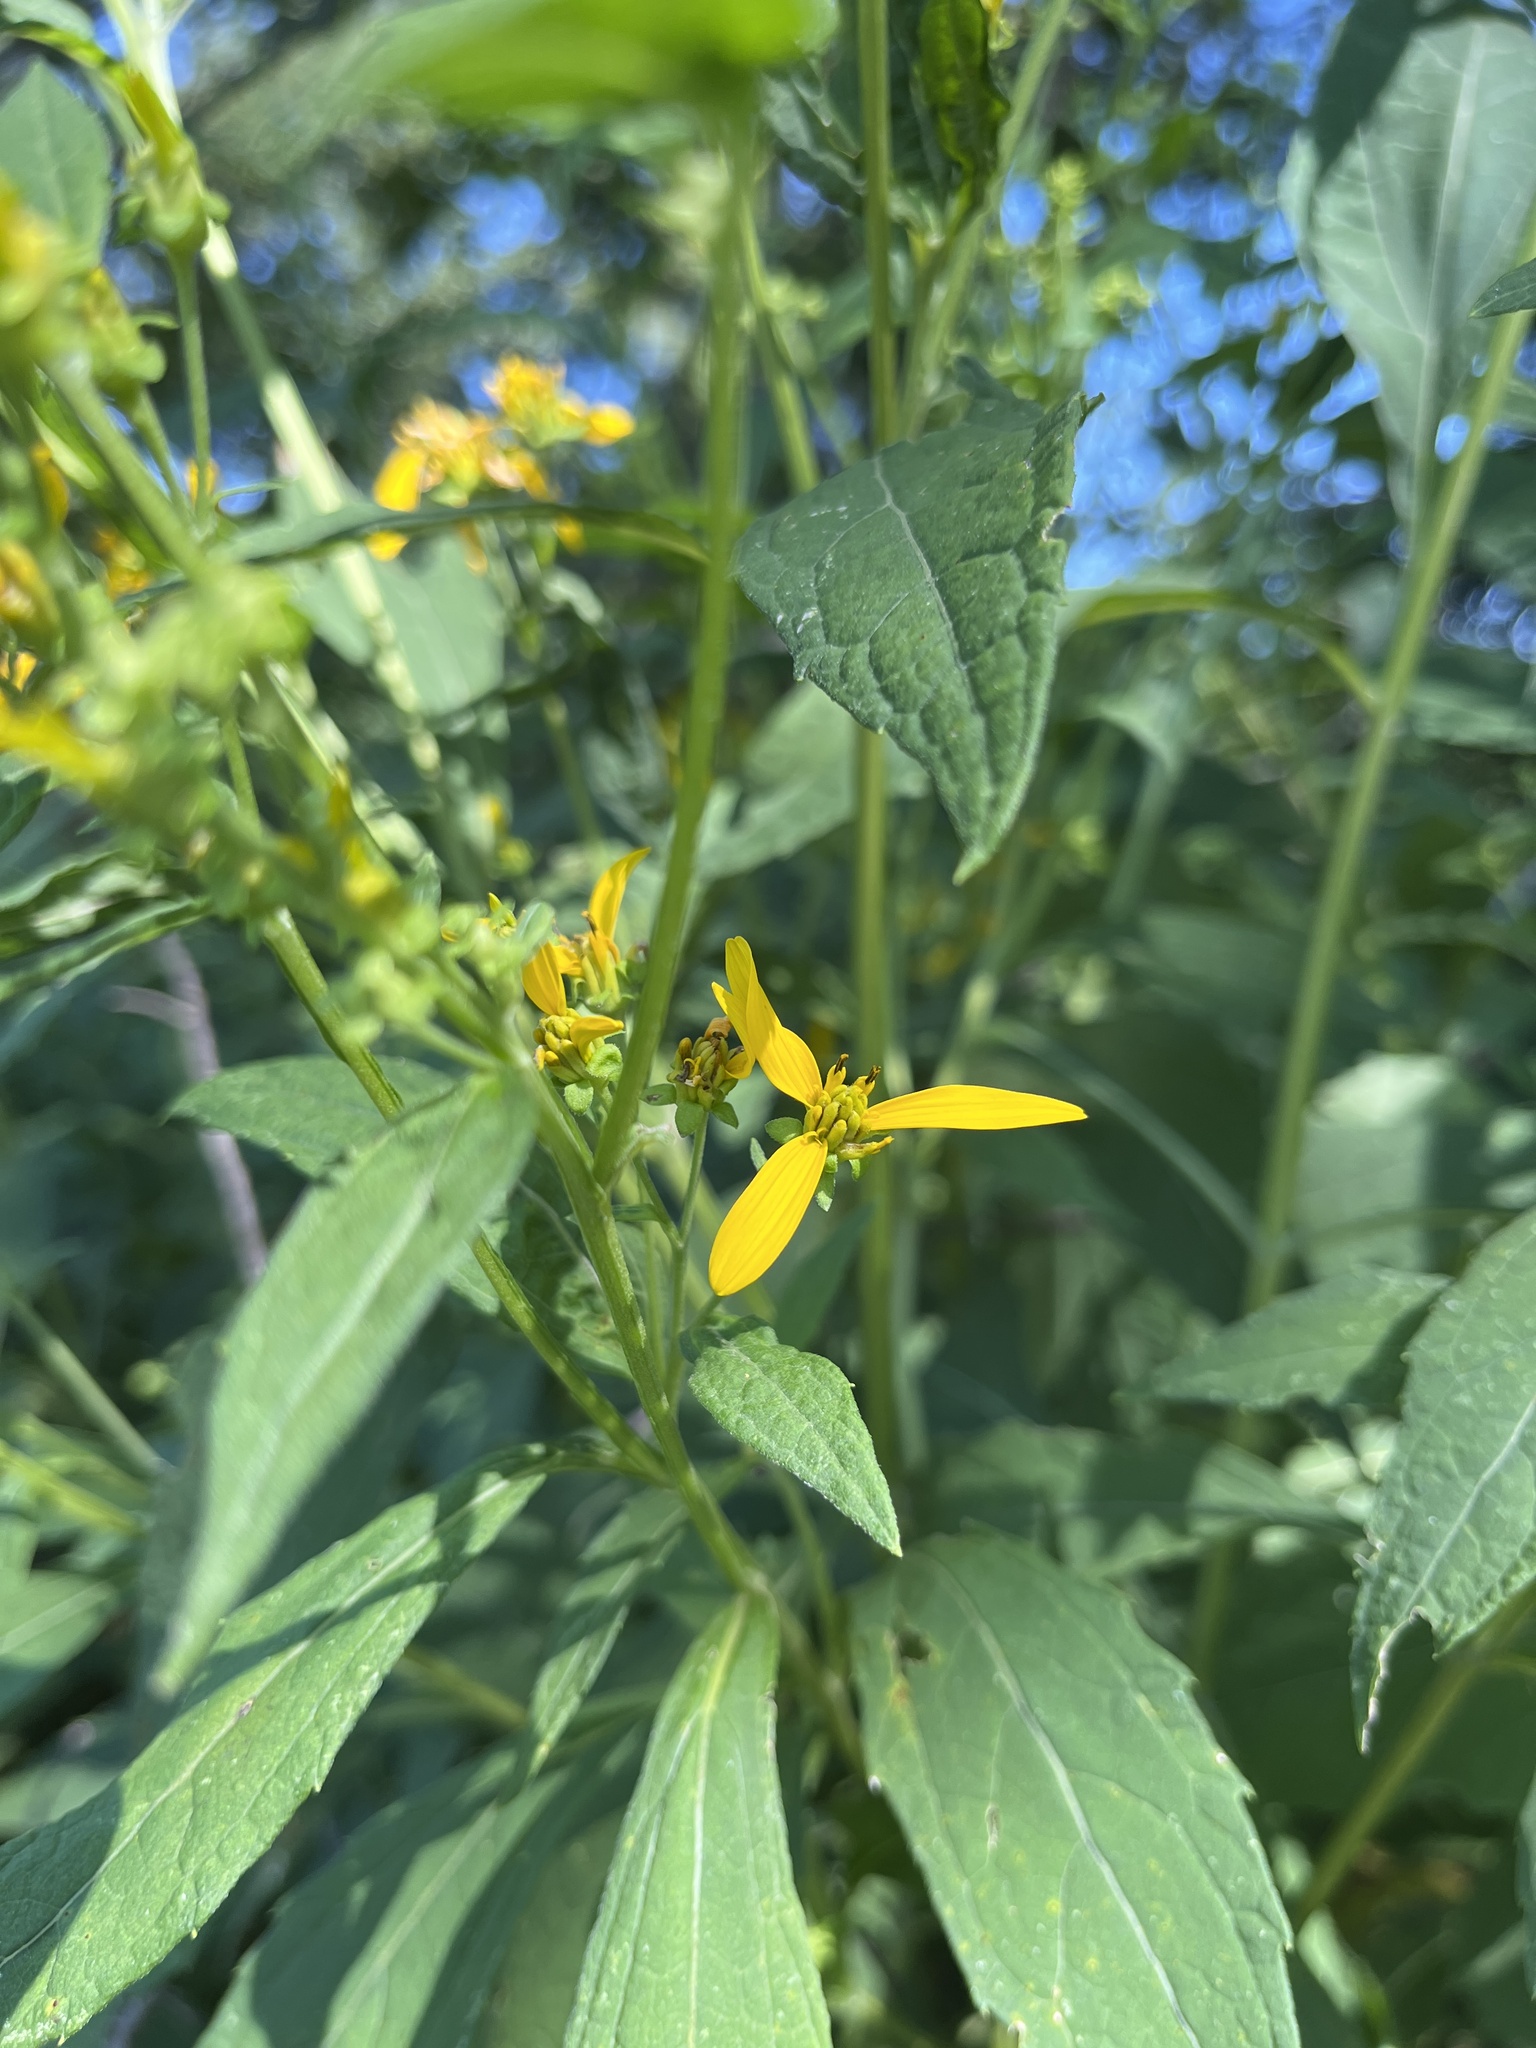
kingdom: Plantae
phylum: Tracheophyta
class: Magnoliopsida
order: Asterales
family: Asteraceae
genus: Verbesina
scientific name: Verbesina occidentalis
